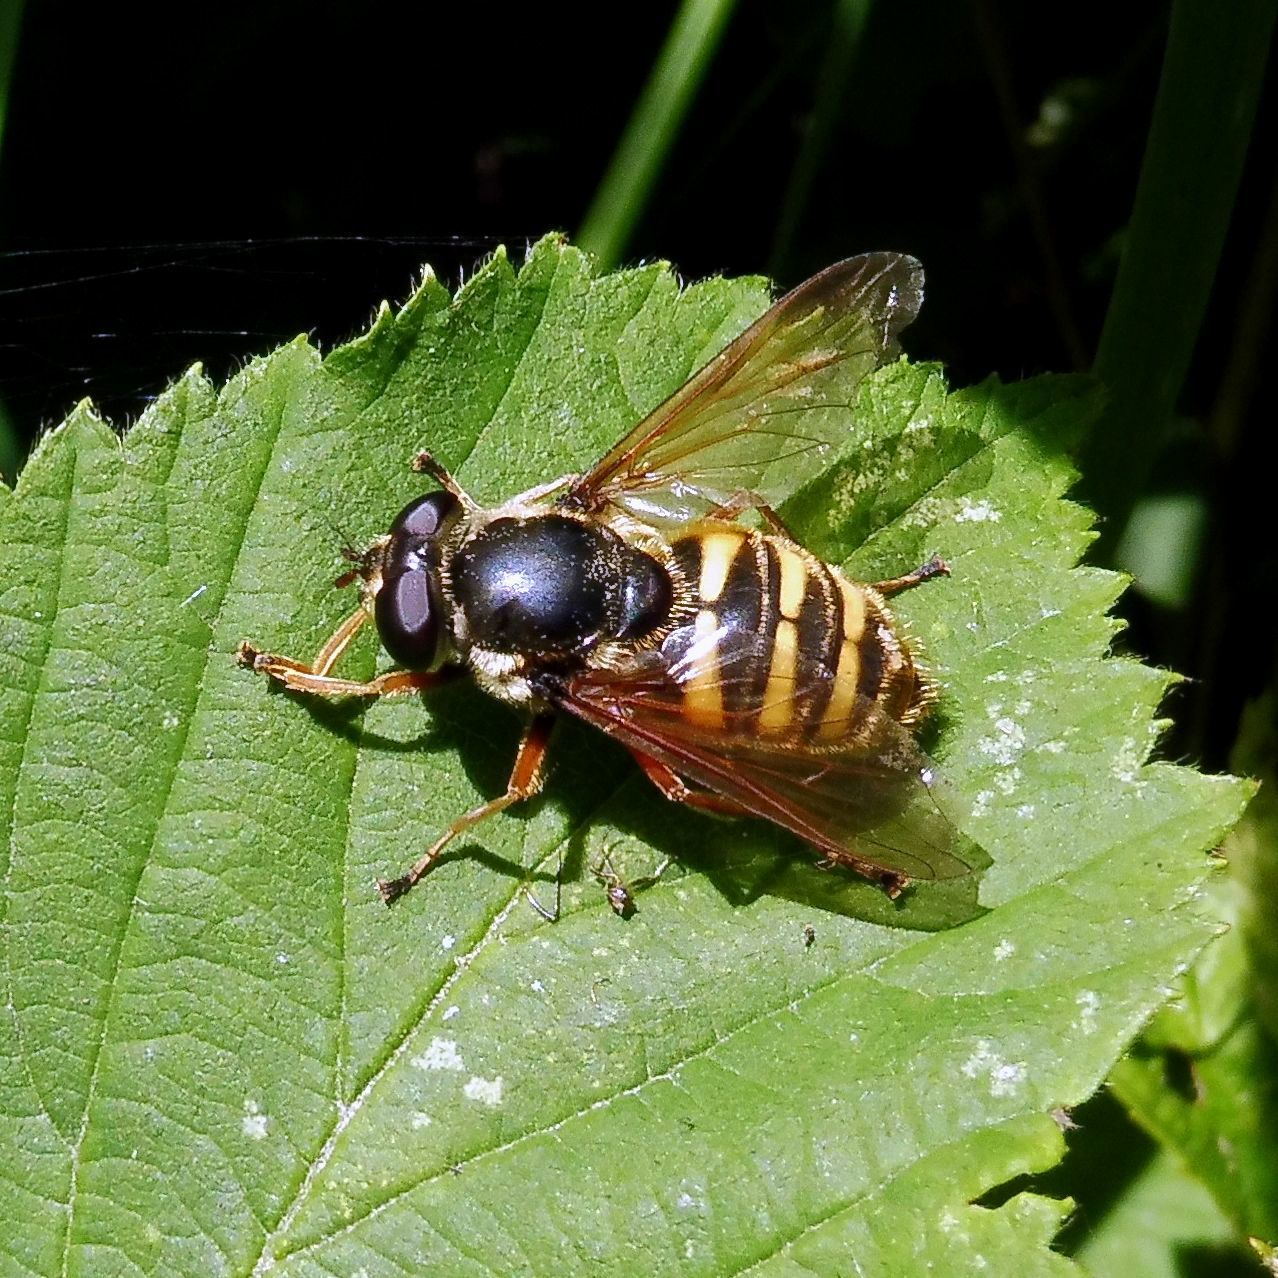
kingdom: Animalia
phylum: Arthropoda
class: Insecta
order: Diptera
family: Syrphidae
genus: Sericomyia
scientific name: Sericomyia silentis
